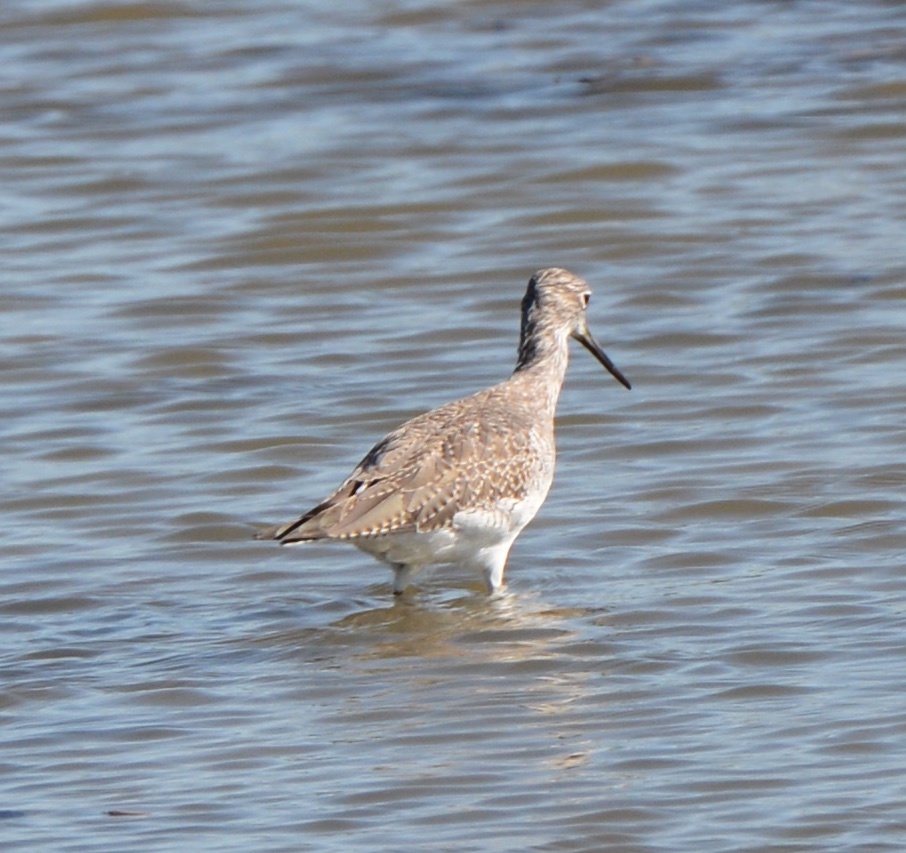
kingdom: Animalia
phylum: Chordata
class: Aves
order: Charadriiformes
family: Scolopacidae
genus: Tringa
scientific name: Tringa melanoleuca
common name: Greater yellowlegs
